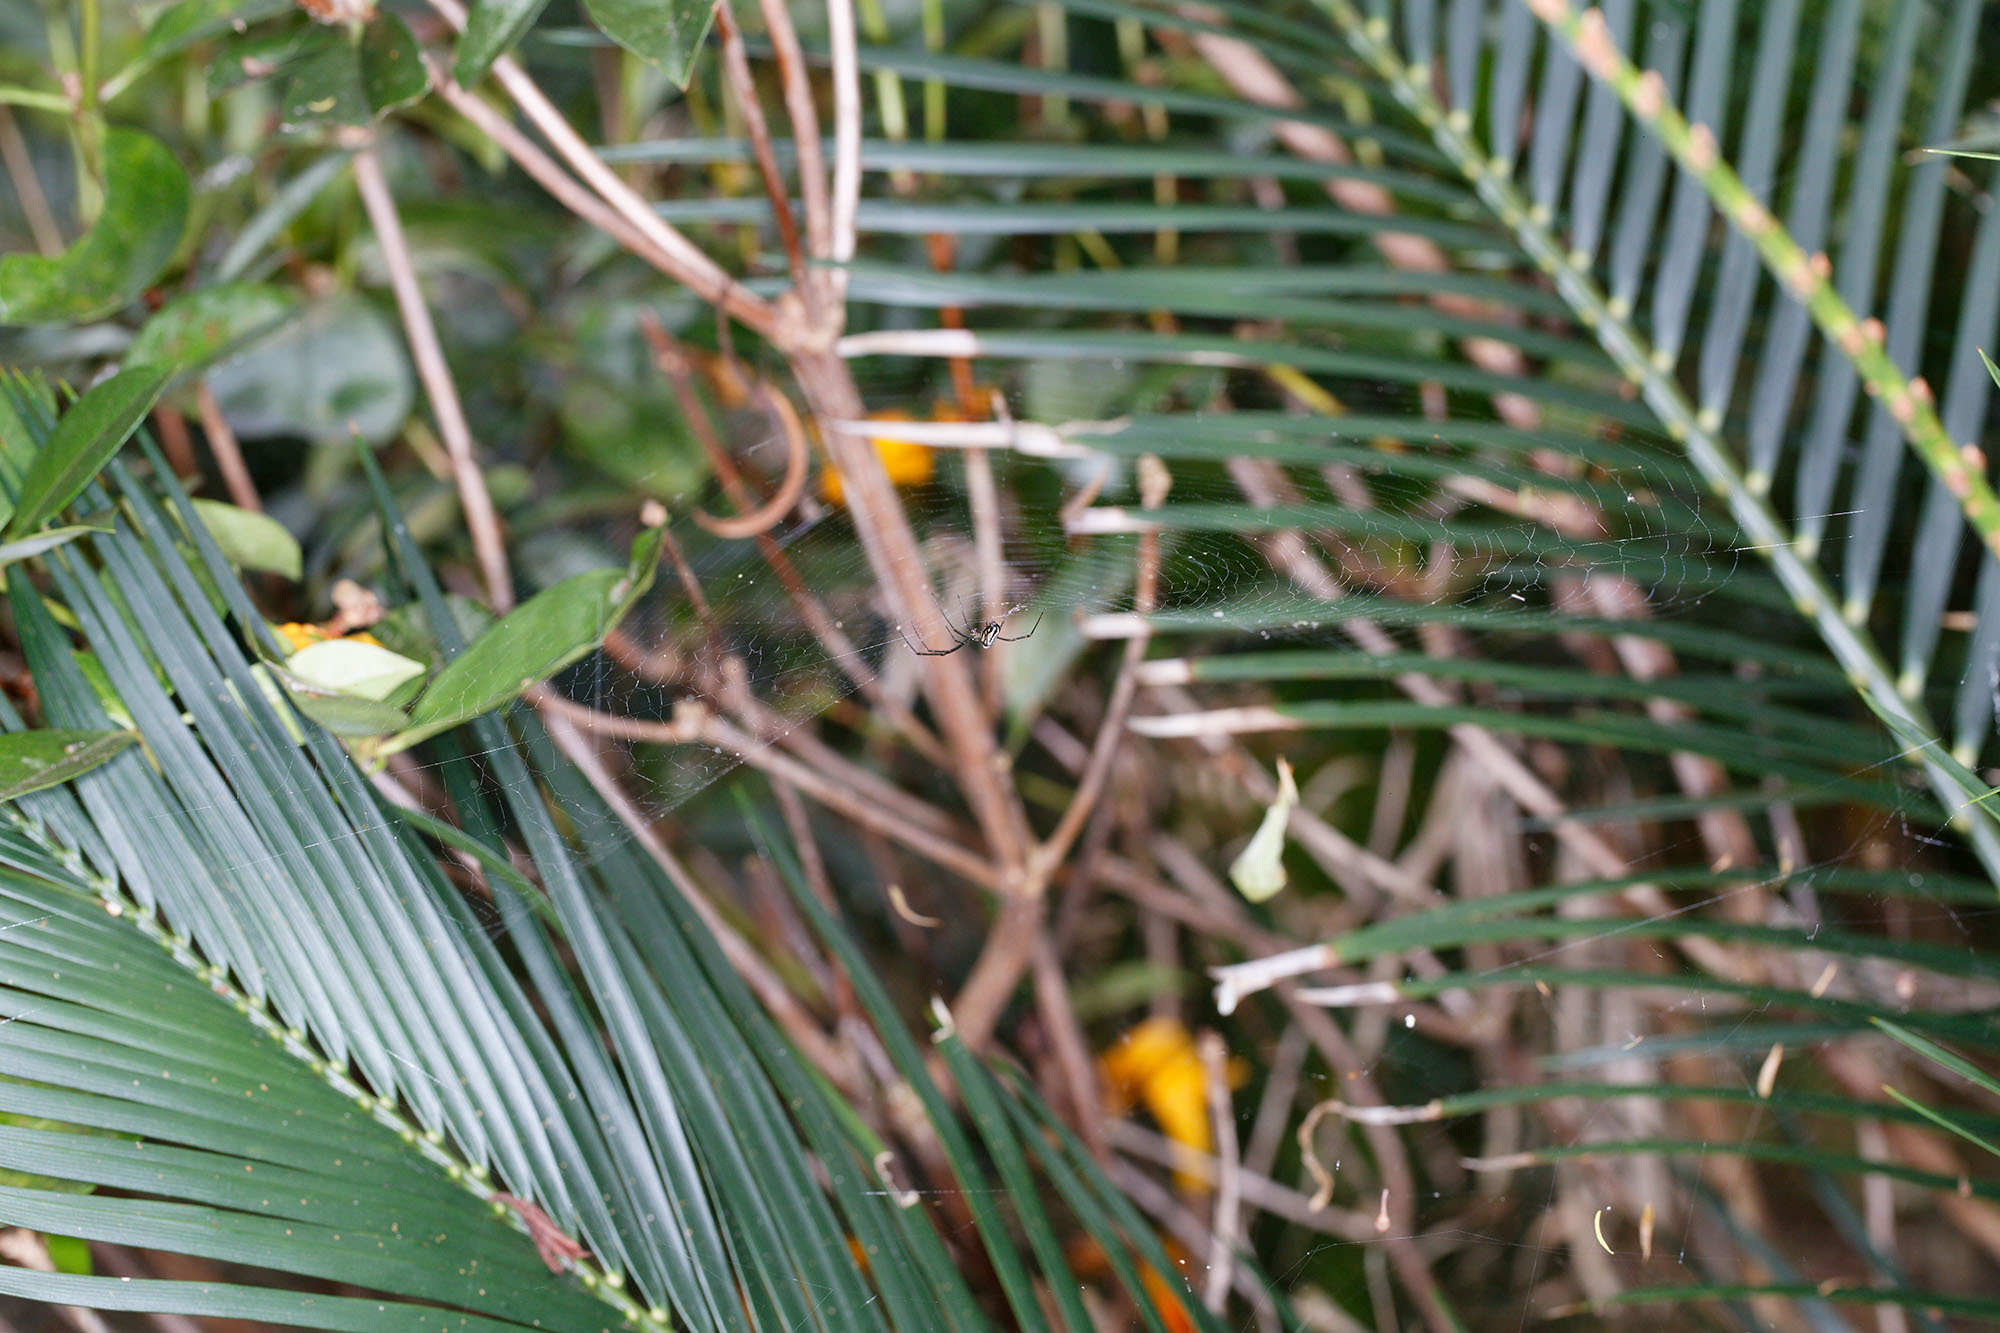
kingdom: Animalia
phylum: Arthropoda
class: Arachnida
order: Araneae
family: Tetragnathidae
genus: Leucauge
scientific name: Leucauge dromedaria
